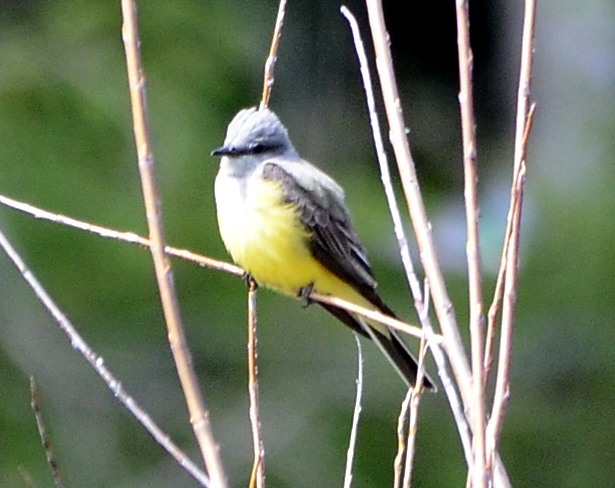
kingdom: Animalia
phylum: Chordata
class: Aves
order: Passeriformes
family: Tyrannidae
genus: Tyrannus
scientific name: Tyrannus verticalis
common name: Western kingbird
